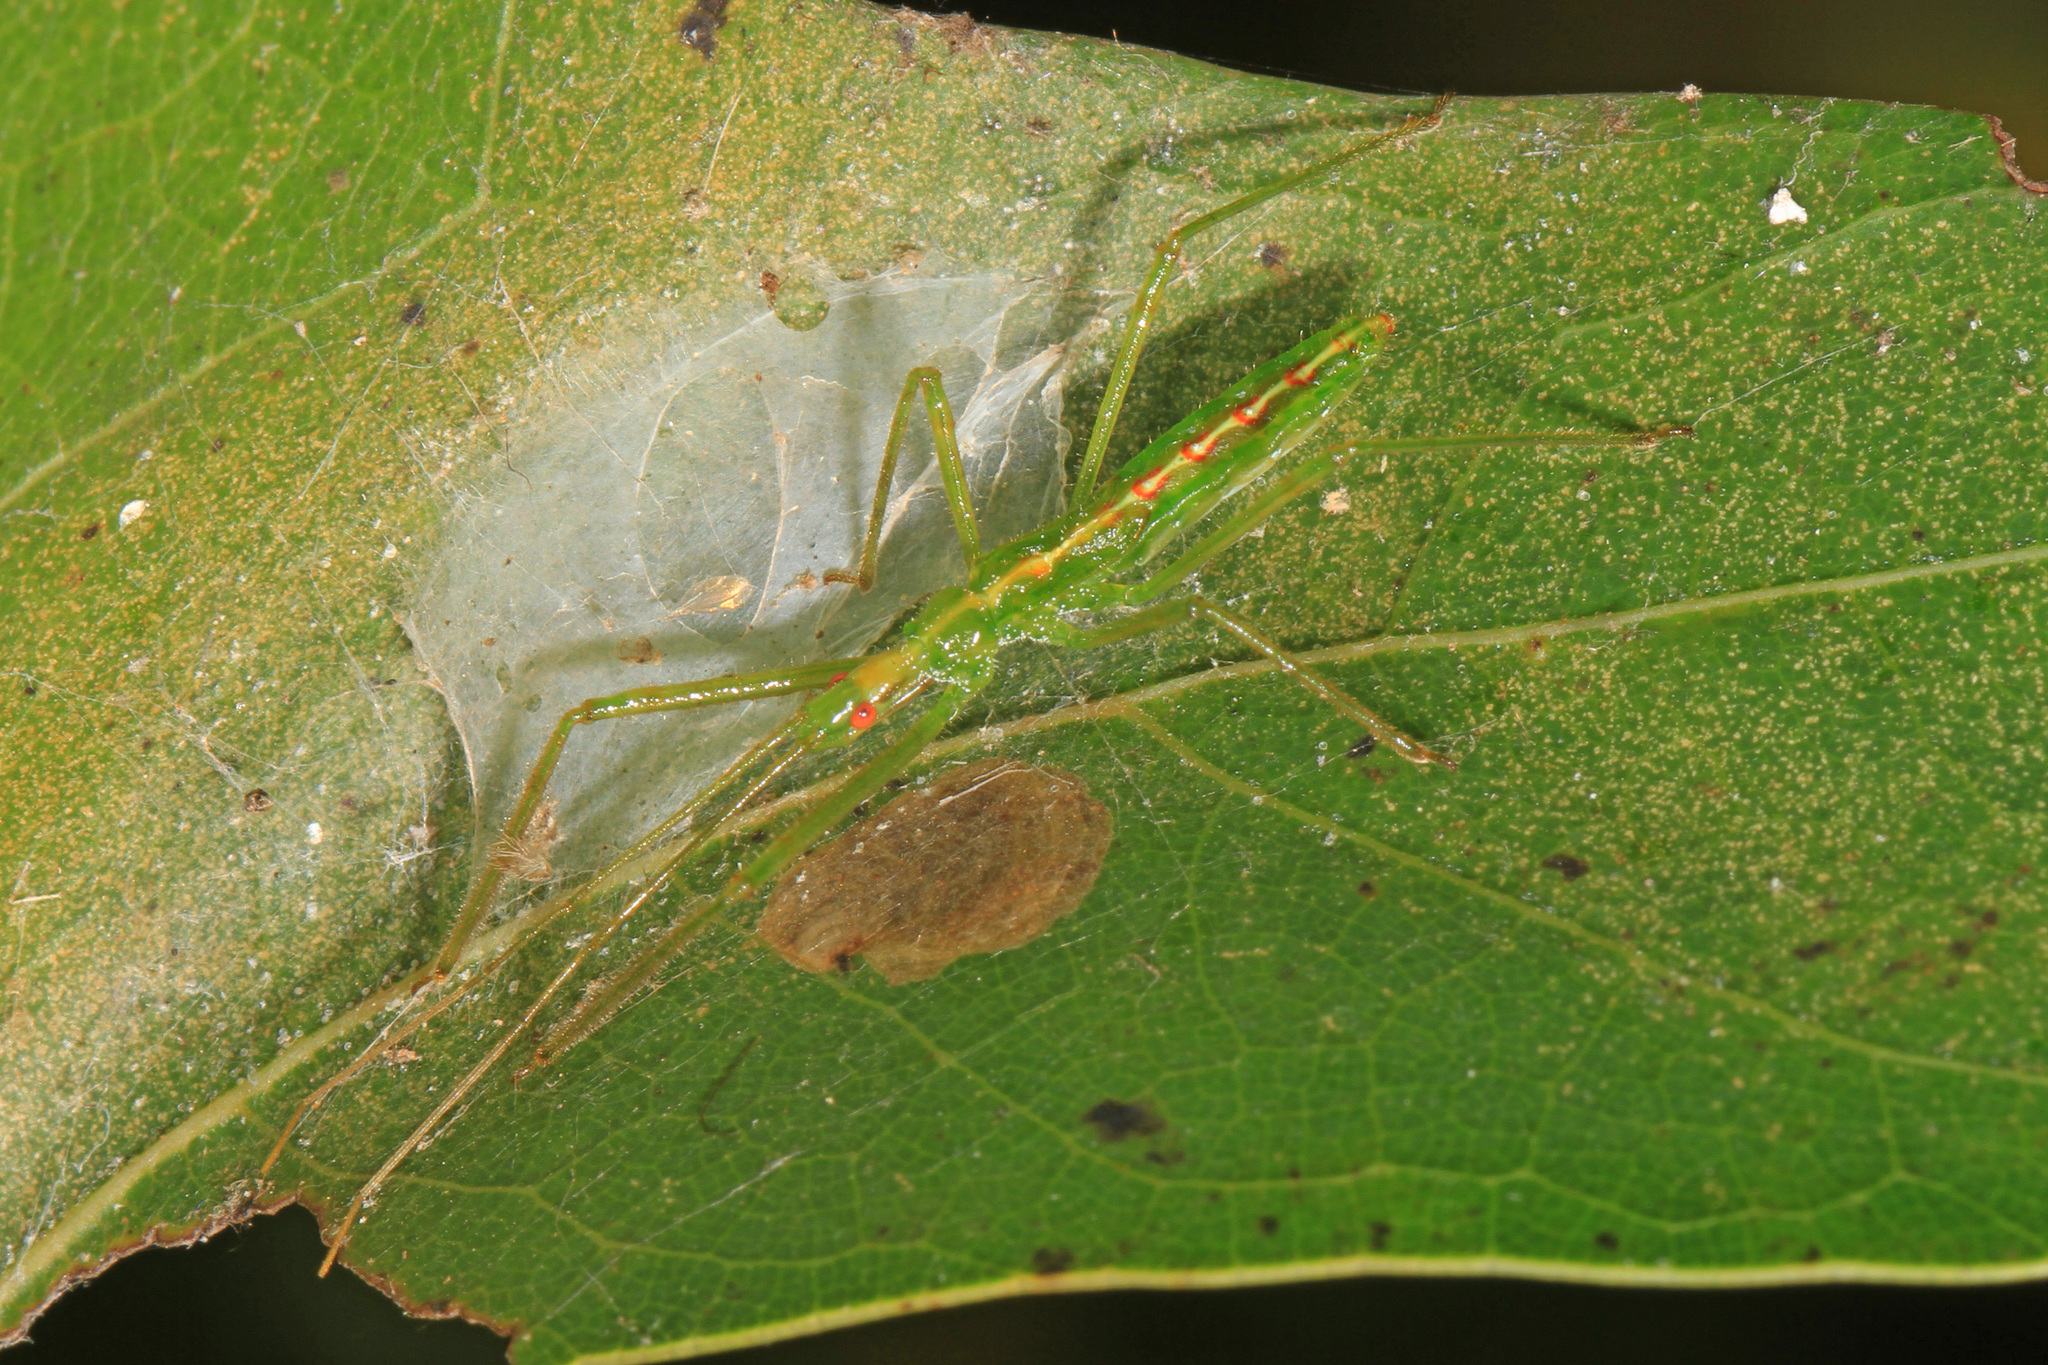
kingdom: Animalia
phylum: Arthropoda
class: Insecta
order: Hemiptera
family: Reduviidae
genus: Zelus
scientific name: Zelus luridus
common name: Pale green assassin bug
